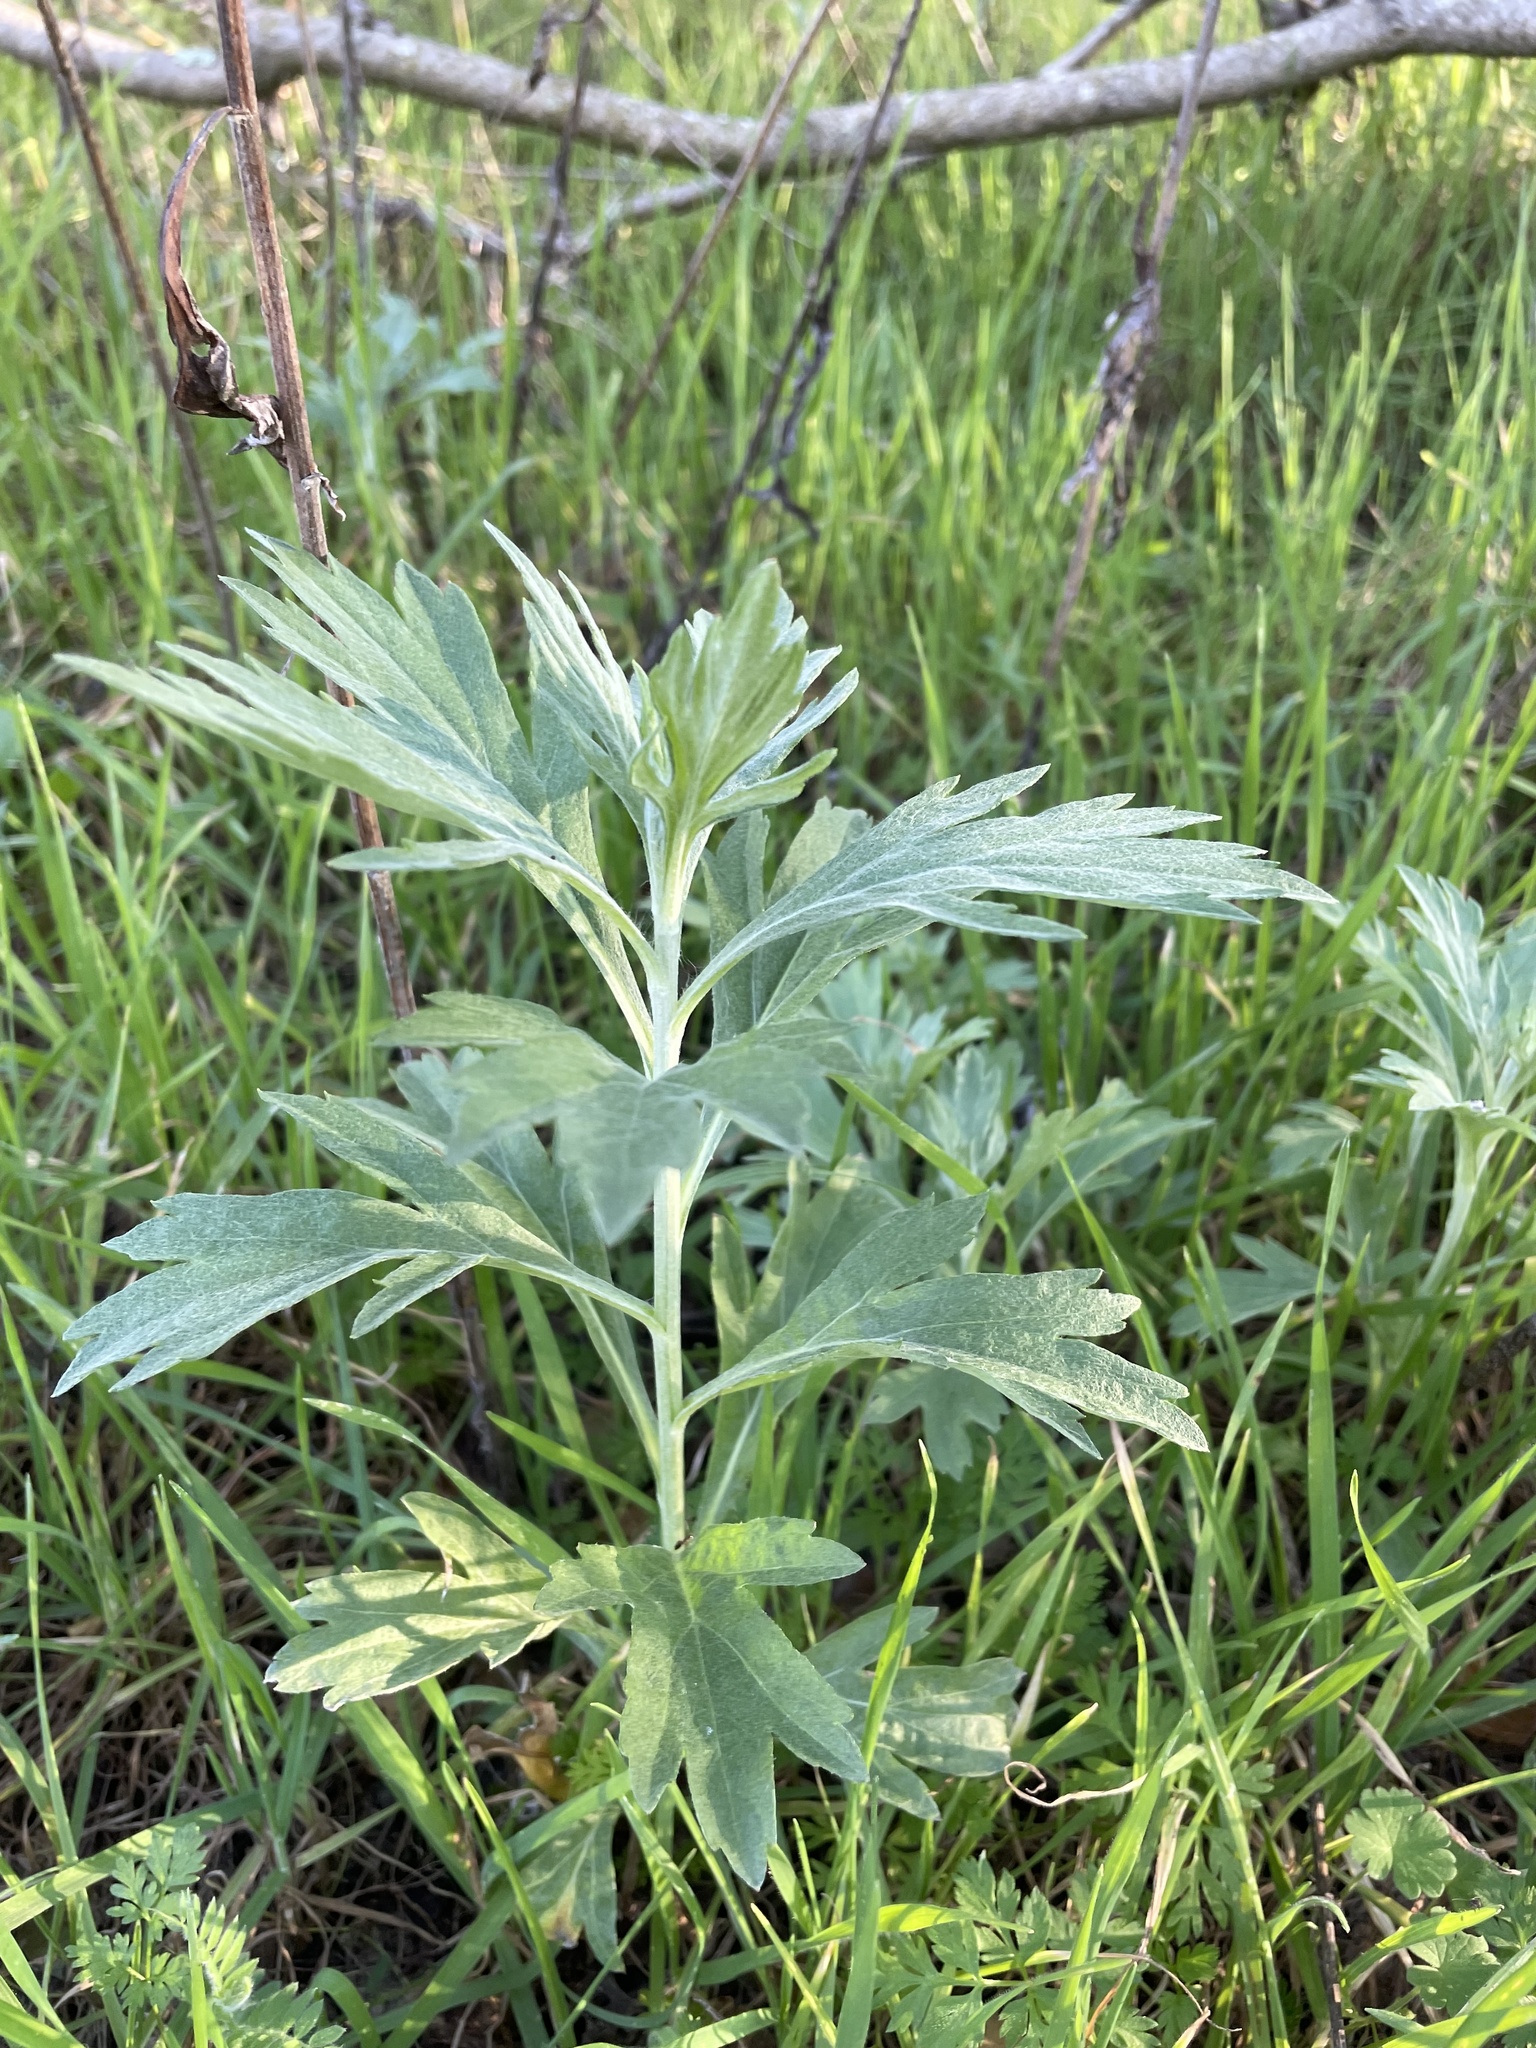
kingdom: Plantae
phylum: Tracheophyta
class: Magnoliopsida
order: Asterales
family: Asteraceae
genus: Artemisia
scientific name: Artemisia douglasiana
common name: Northwest mugwort
